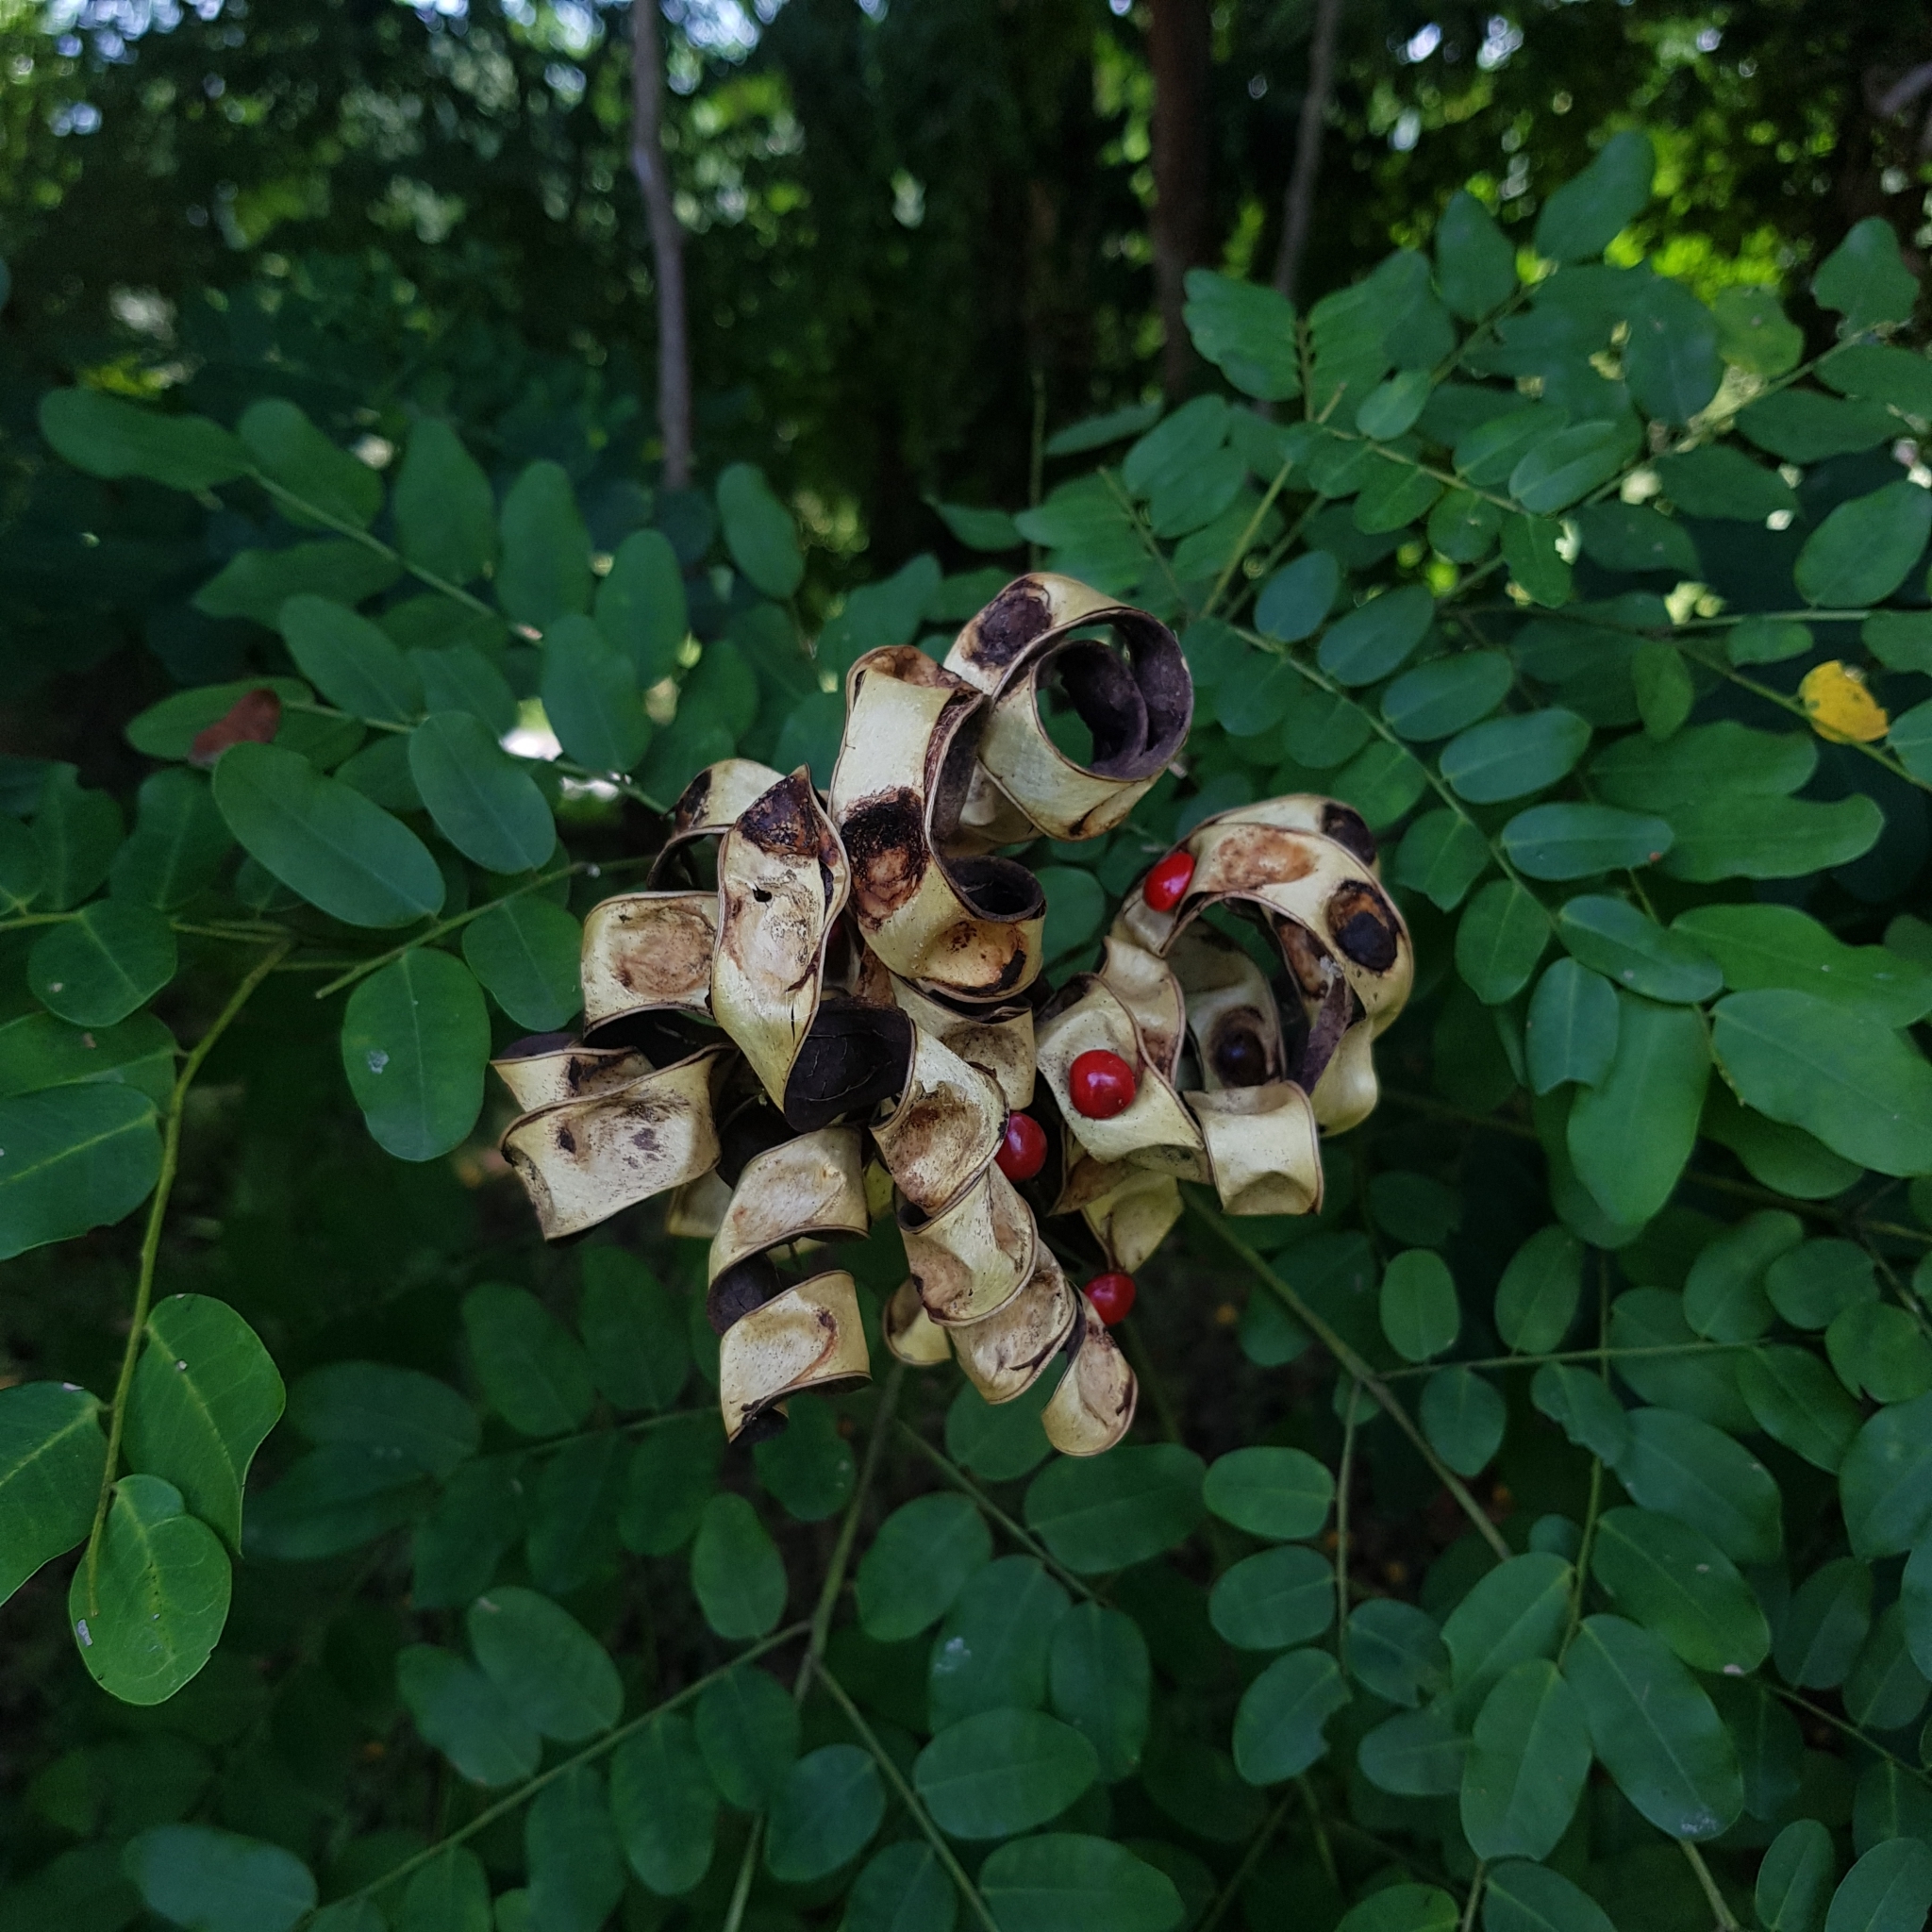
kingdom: Plantae
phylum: Tracheophyta
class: Magnoliopsida
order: Fabales
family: Fabaceae
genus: Adenanthera
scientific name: Adenanthera pavonina
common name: Red beadtree
